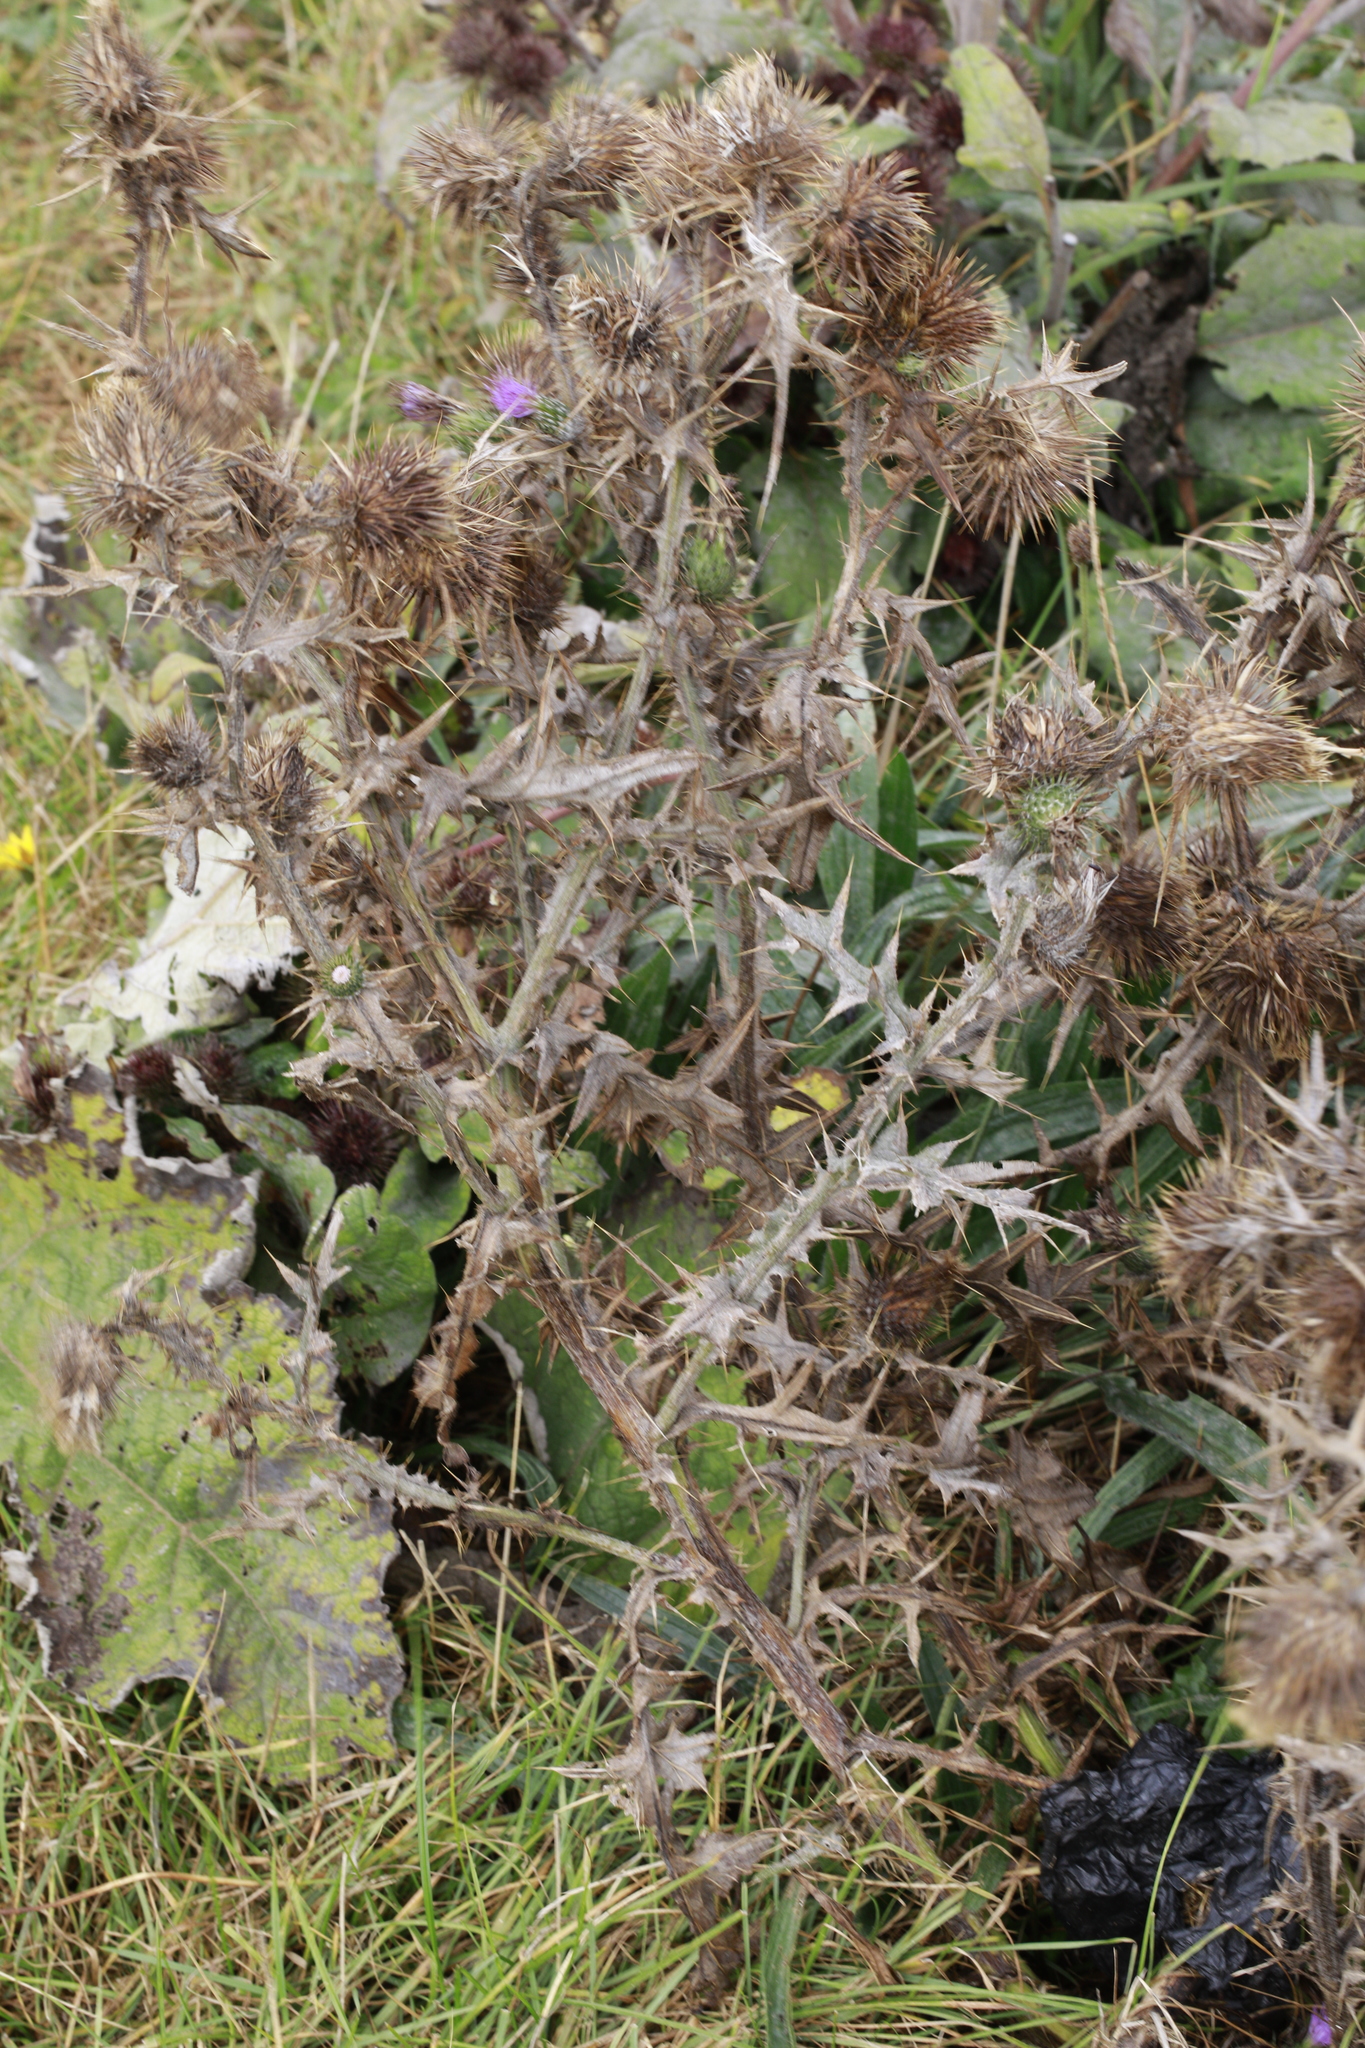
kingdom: Plantae
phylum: Tracheophyta
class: Magnoliopsida
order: Asterales
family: Asteraceae
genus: Cirsium
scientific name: Cirsium vulgare
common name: Bull thistle
